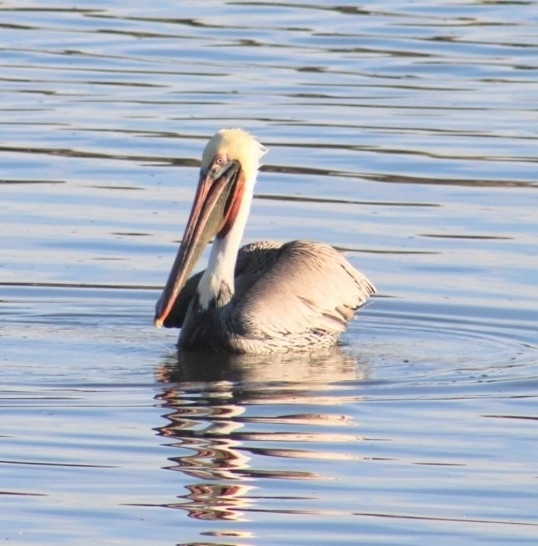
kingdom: Animalia
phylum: Chordata
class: Aves
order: Pelecaniformes
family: Pelecanidae
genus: Pelecanus
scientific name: Pelecanus occidentalis
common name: Brown pelican
